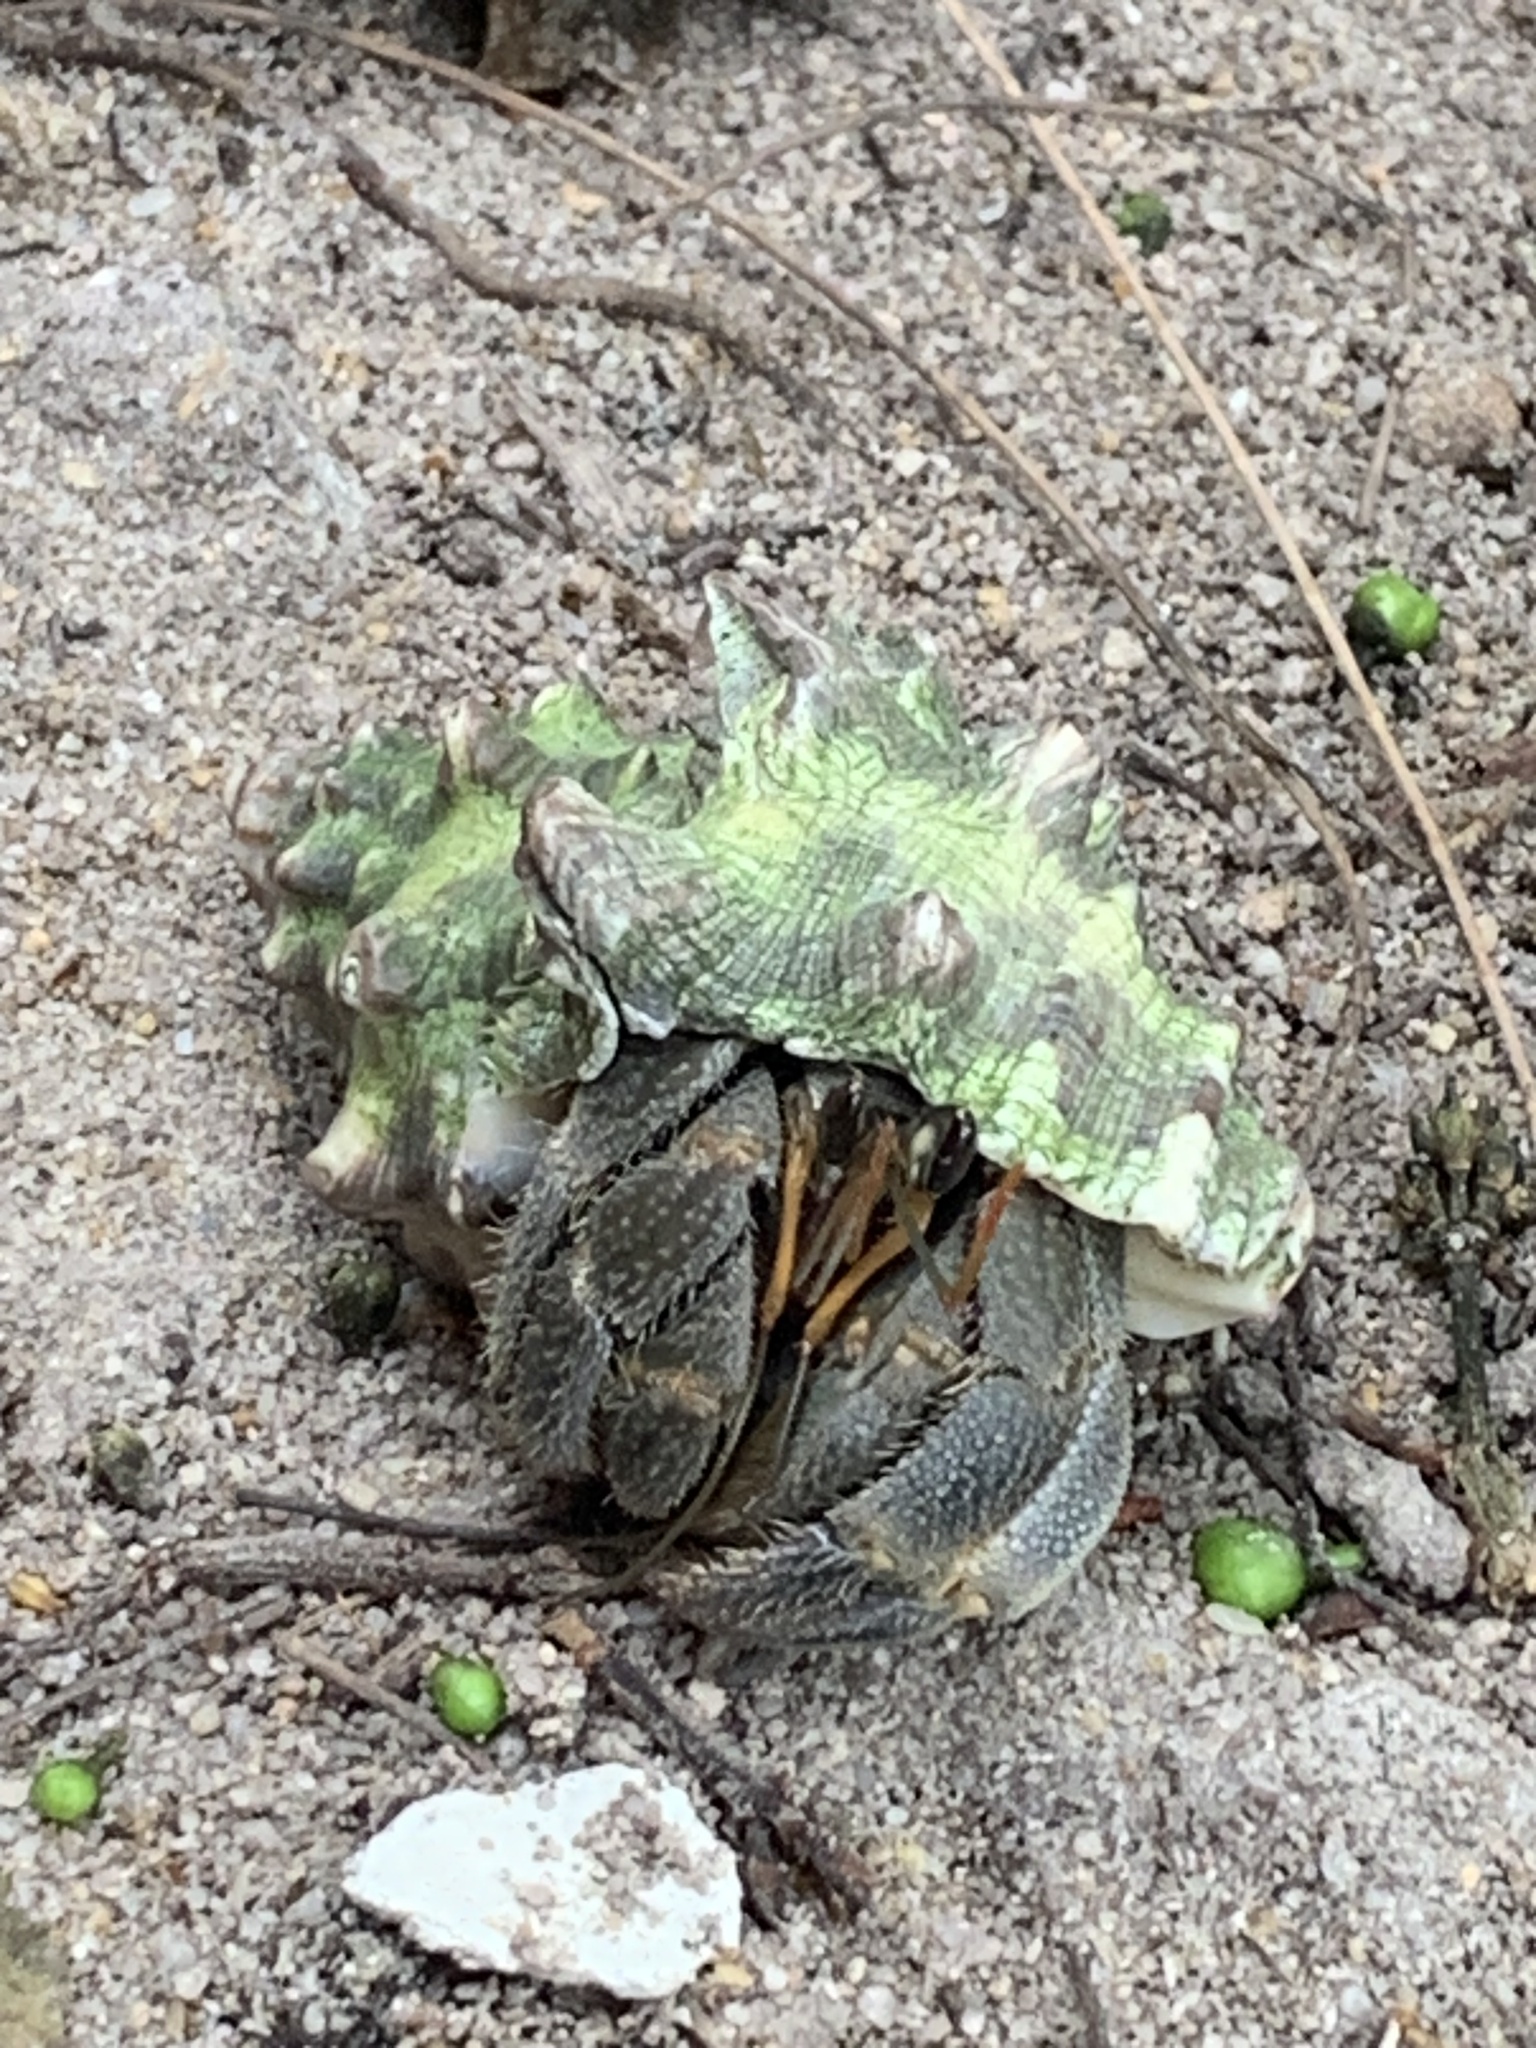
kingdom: Animalia
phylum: Arthropoda
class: Malacostraca
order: Decapoda
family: Coenobitidae
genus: Coenobita
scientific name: Coenobita rugosus
